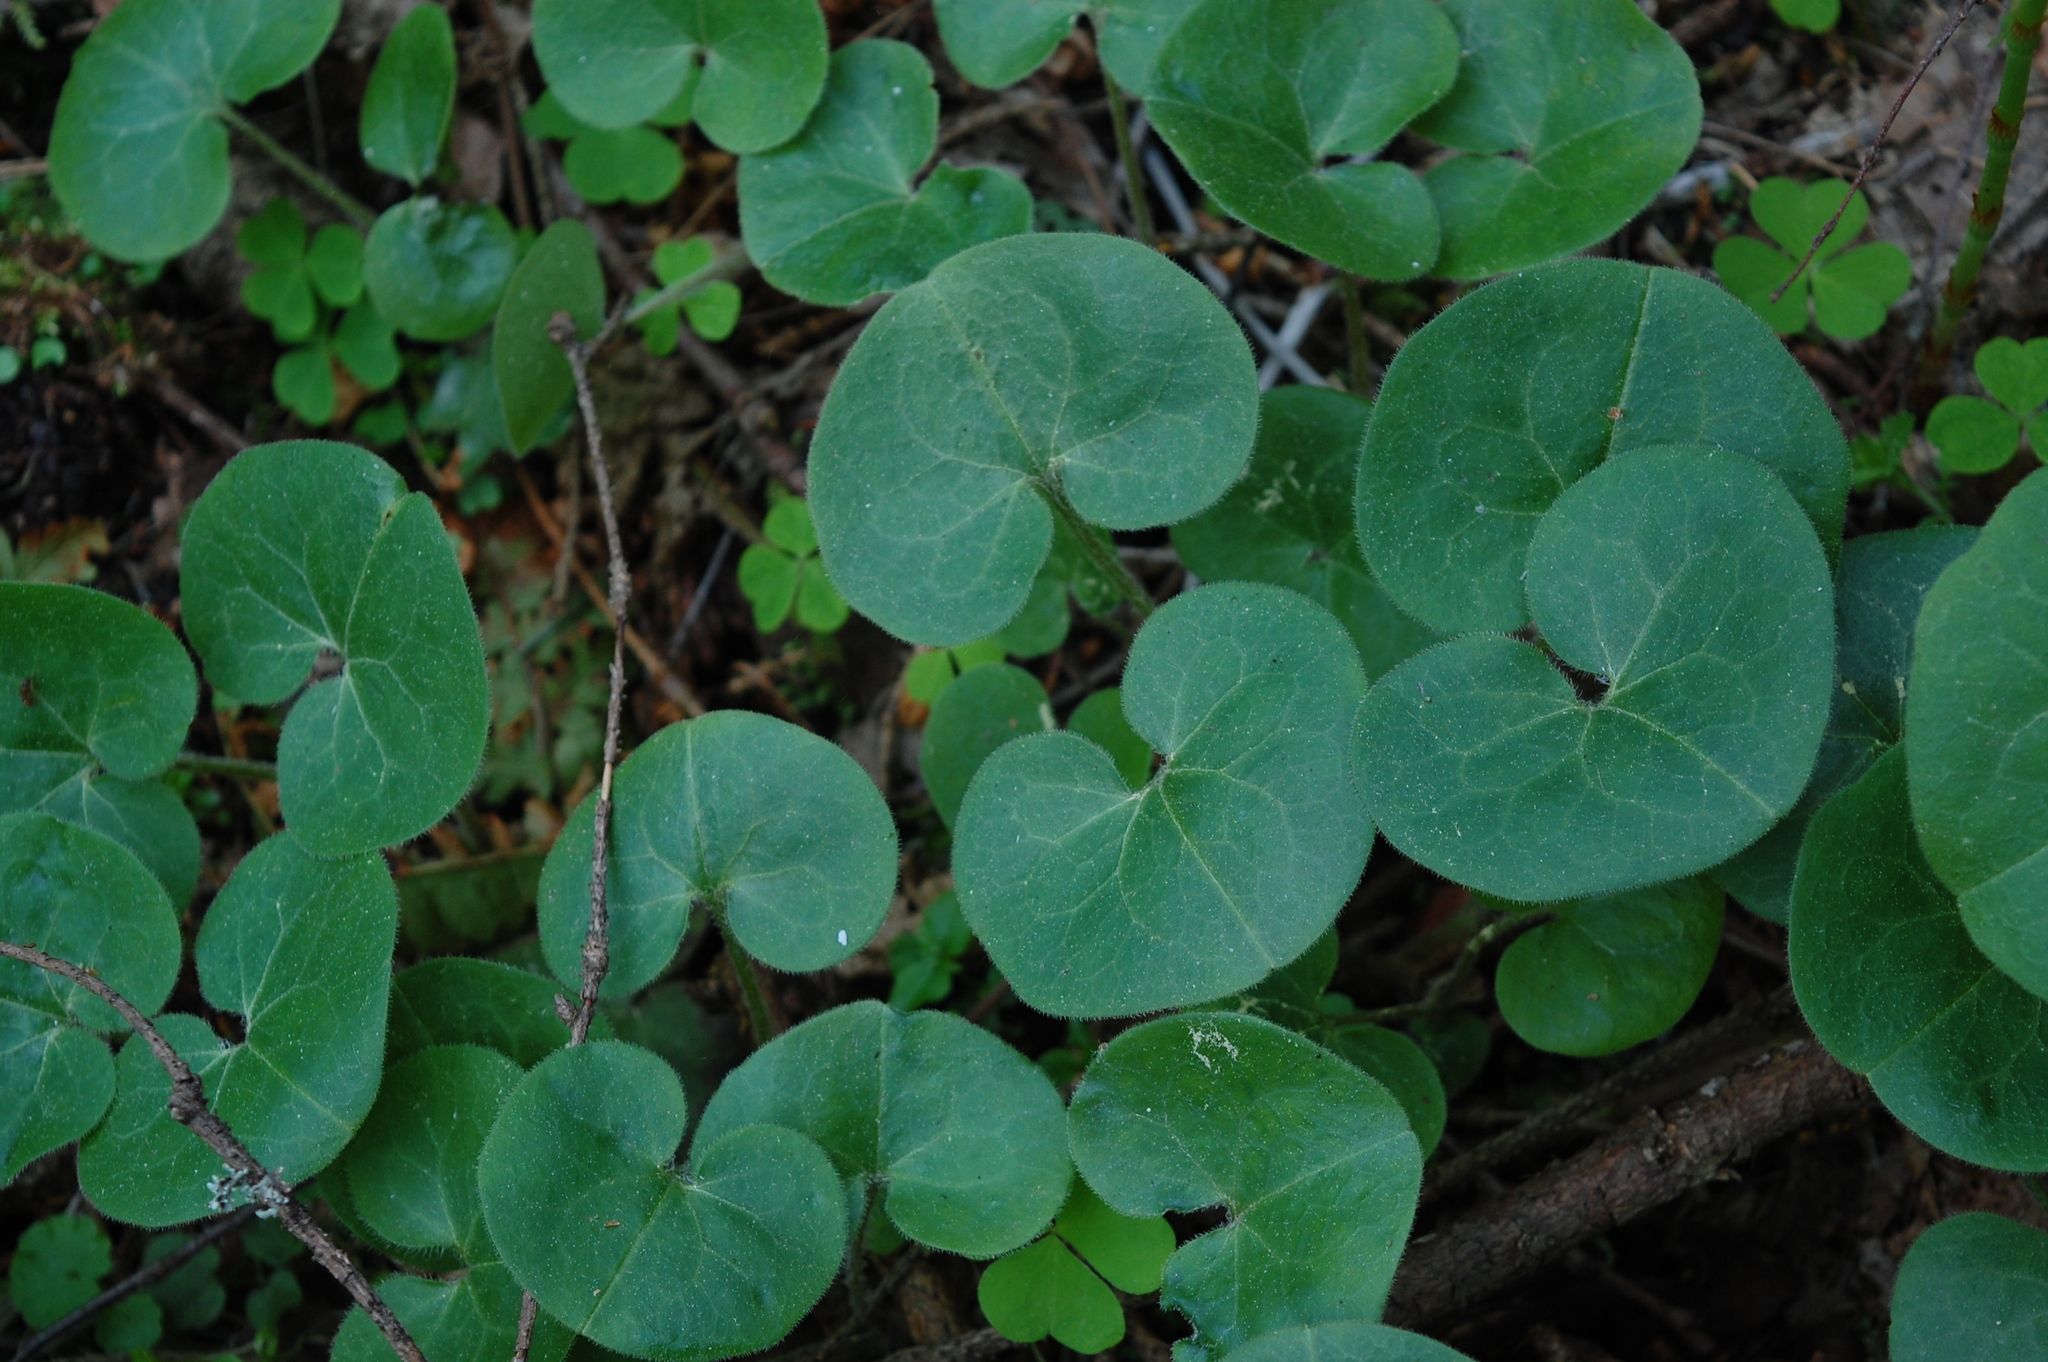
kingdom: Plantae
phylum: Tracheophyta
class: Magnoliopsida
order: Piperales
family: Aristolochiaceae
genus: Asarum
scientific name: Asarum europaeum
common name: Asarabacca
